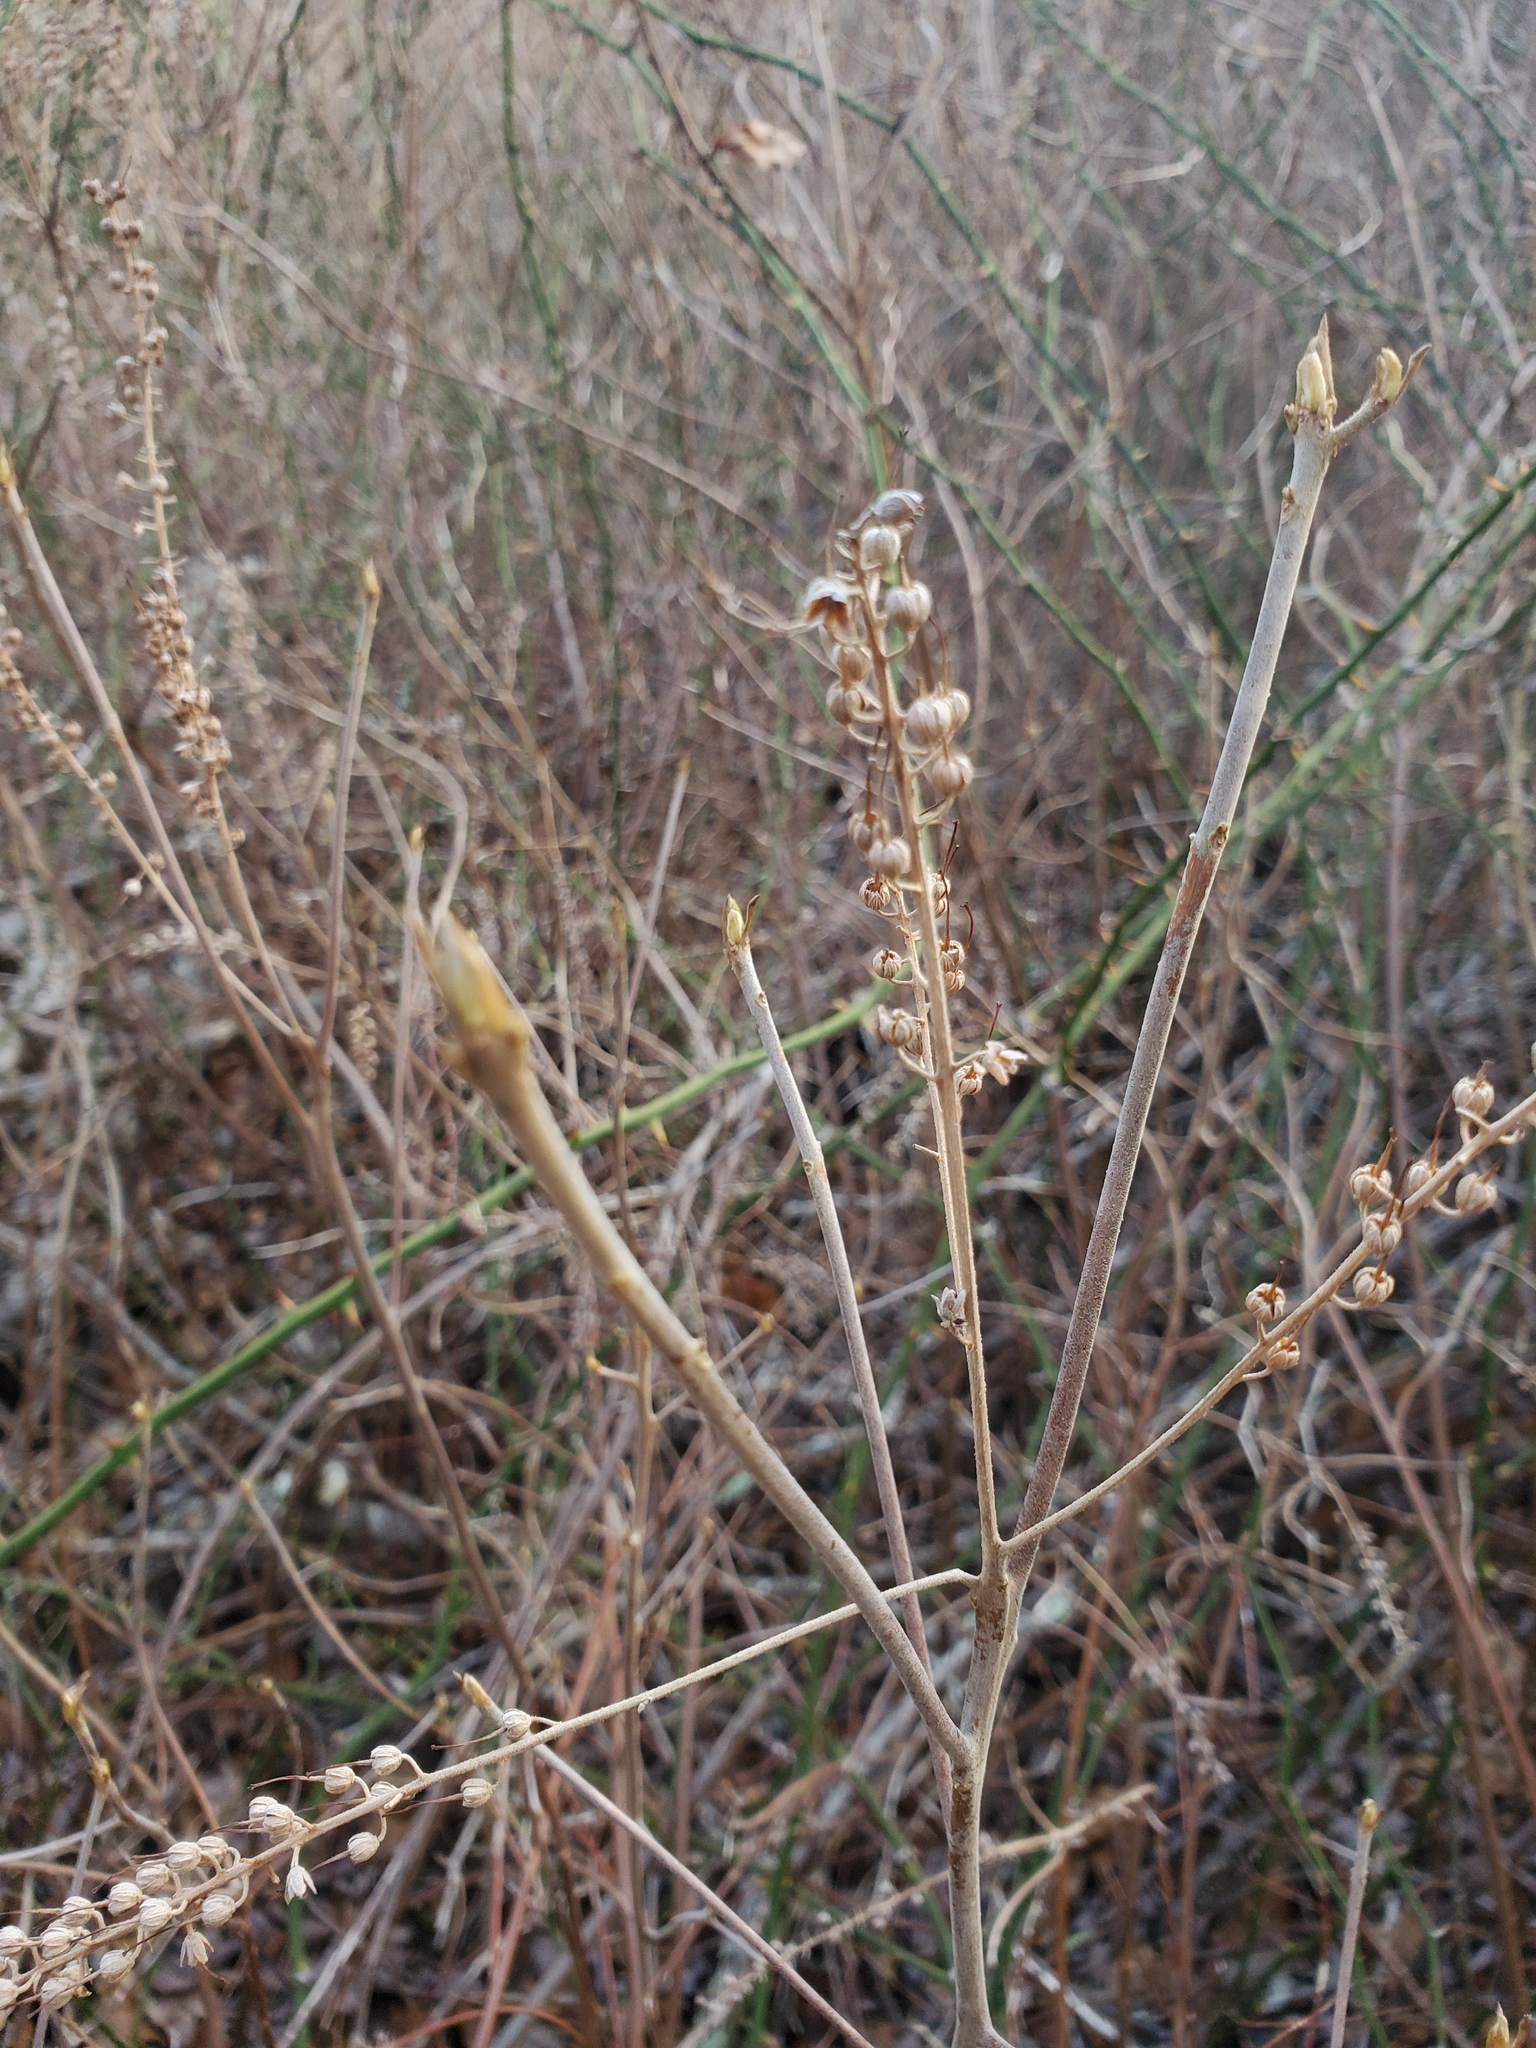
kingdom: Plantae
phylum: Tracheophyta
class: Magnoliopsida
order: Ericales
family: Clethraceae
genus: Clethra
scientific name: Clethra alnifolia
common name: Sweet pepperbush
